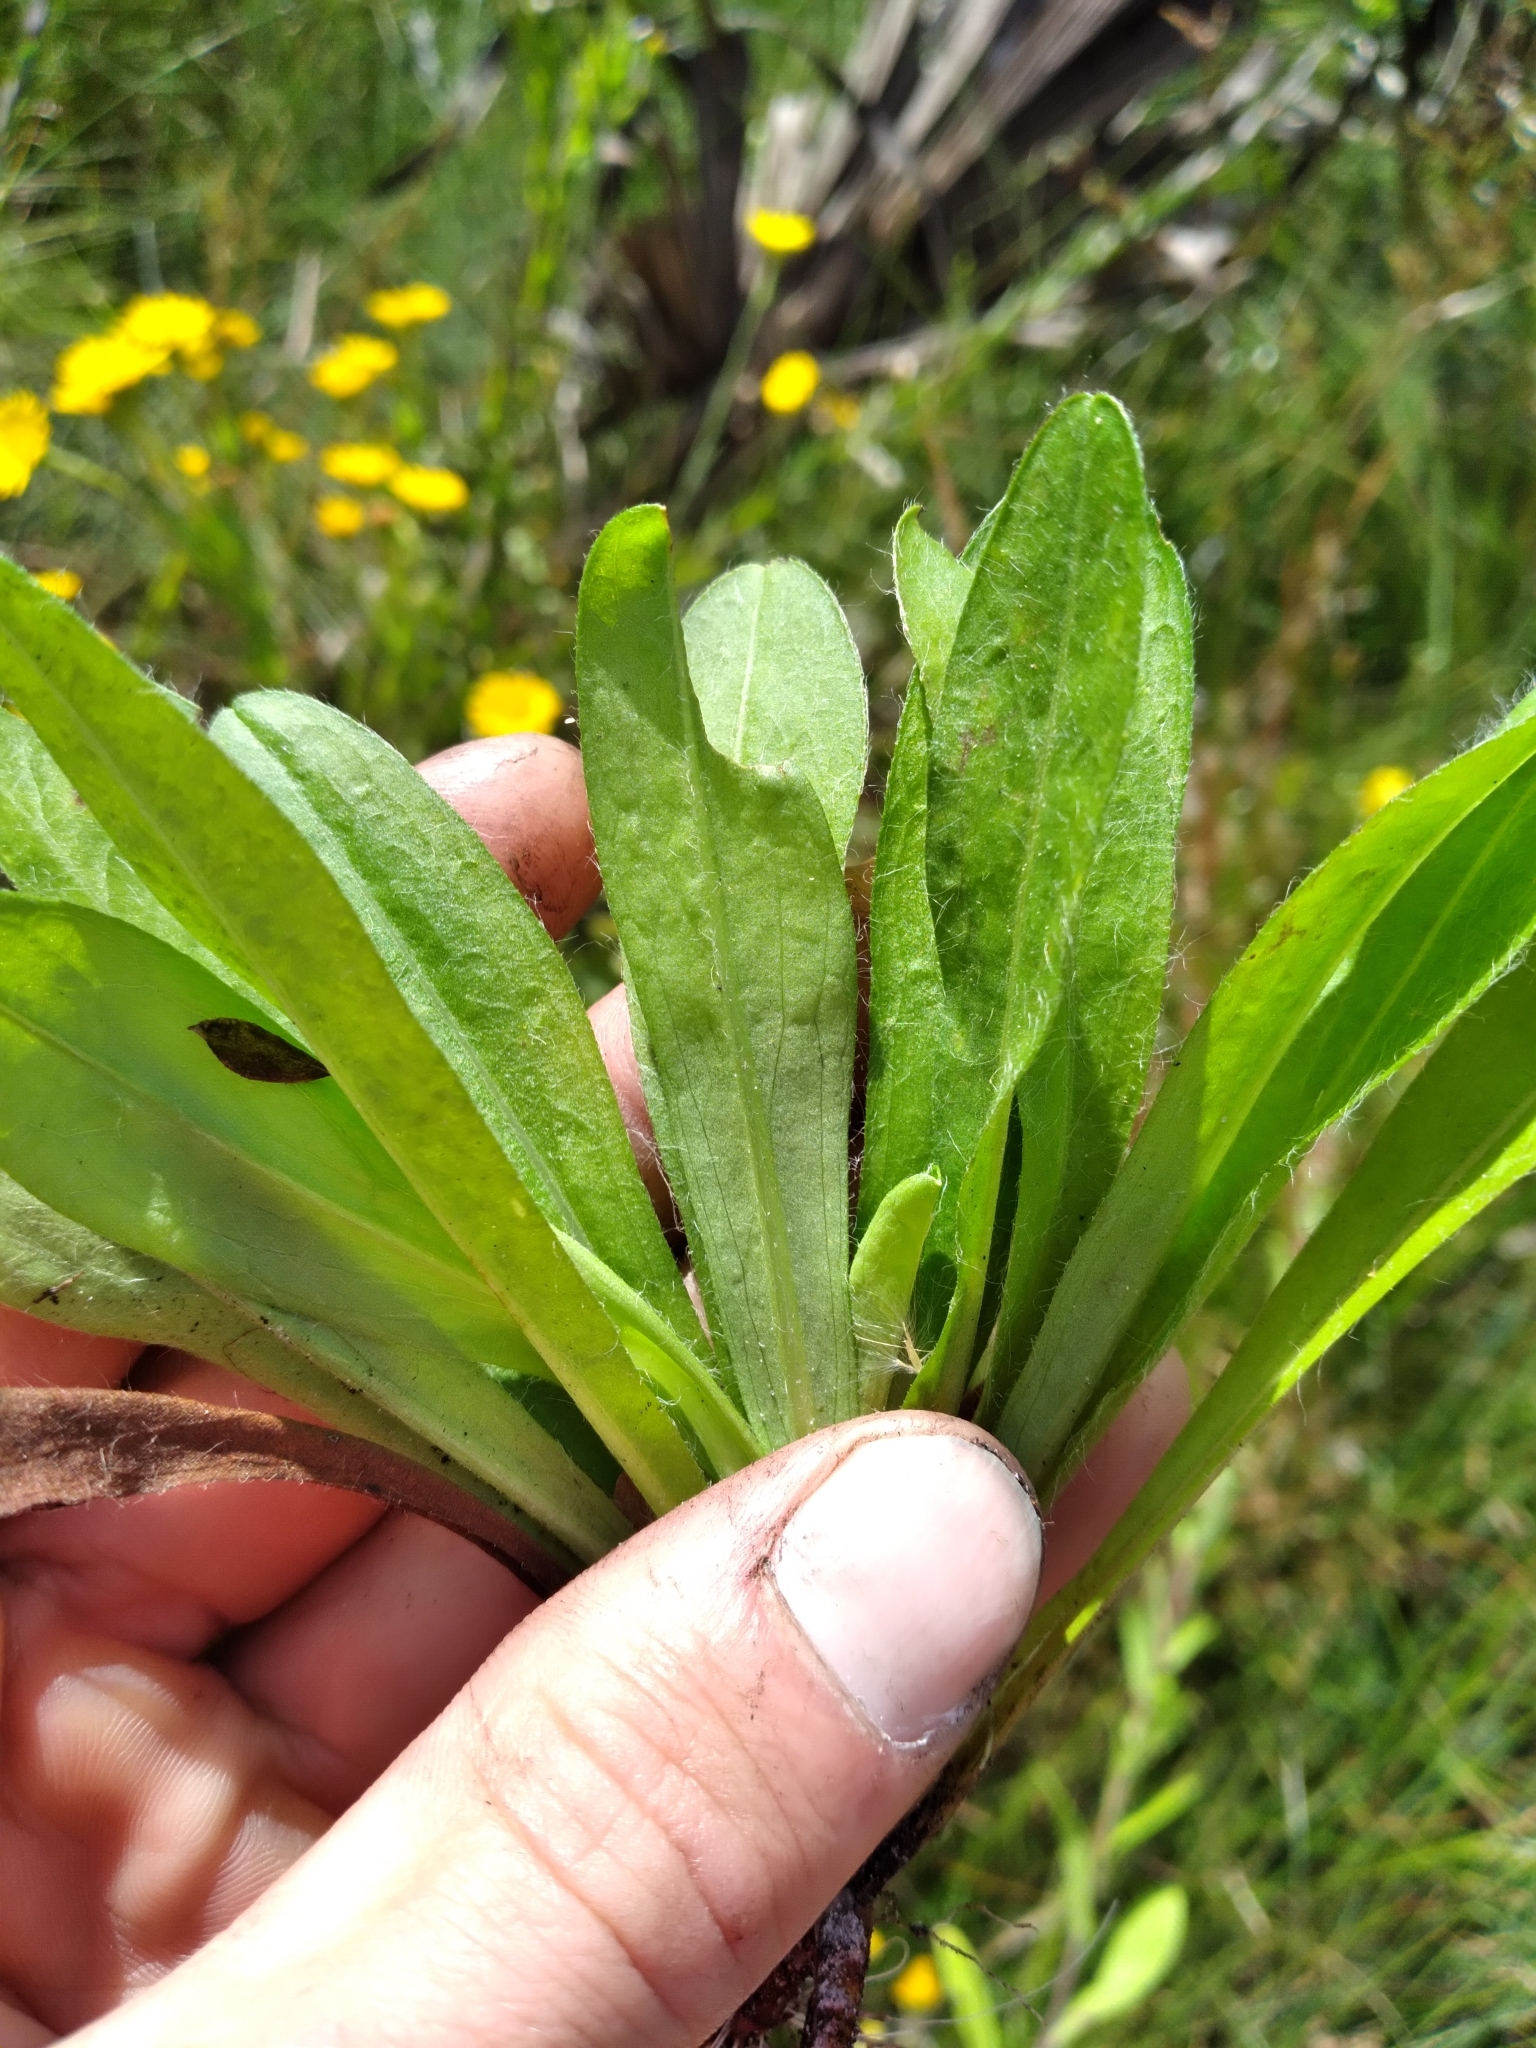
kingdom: Plantae
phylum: Tracheophyta
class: Magnoliopsida
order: Asterales
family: Asteraceae
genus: Chrysopsis
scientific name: Chrysopsis mariana
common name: Maryland golden-aster
